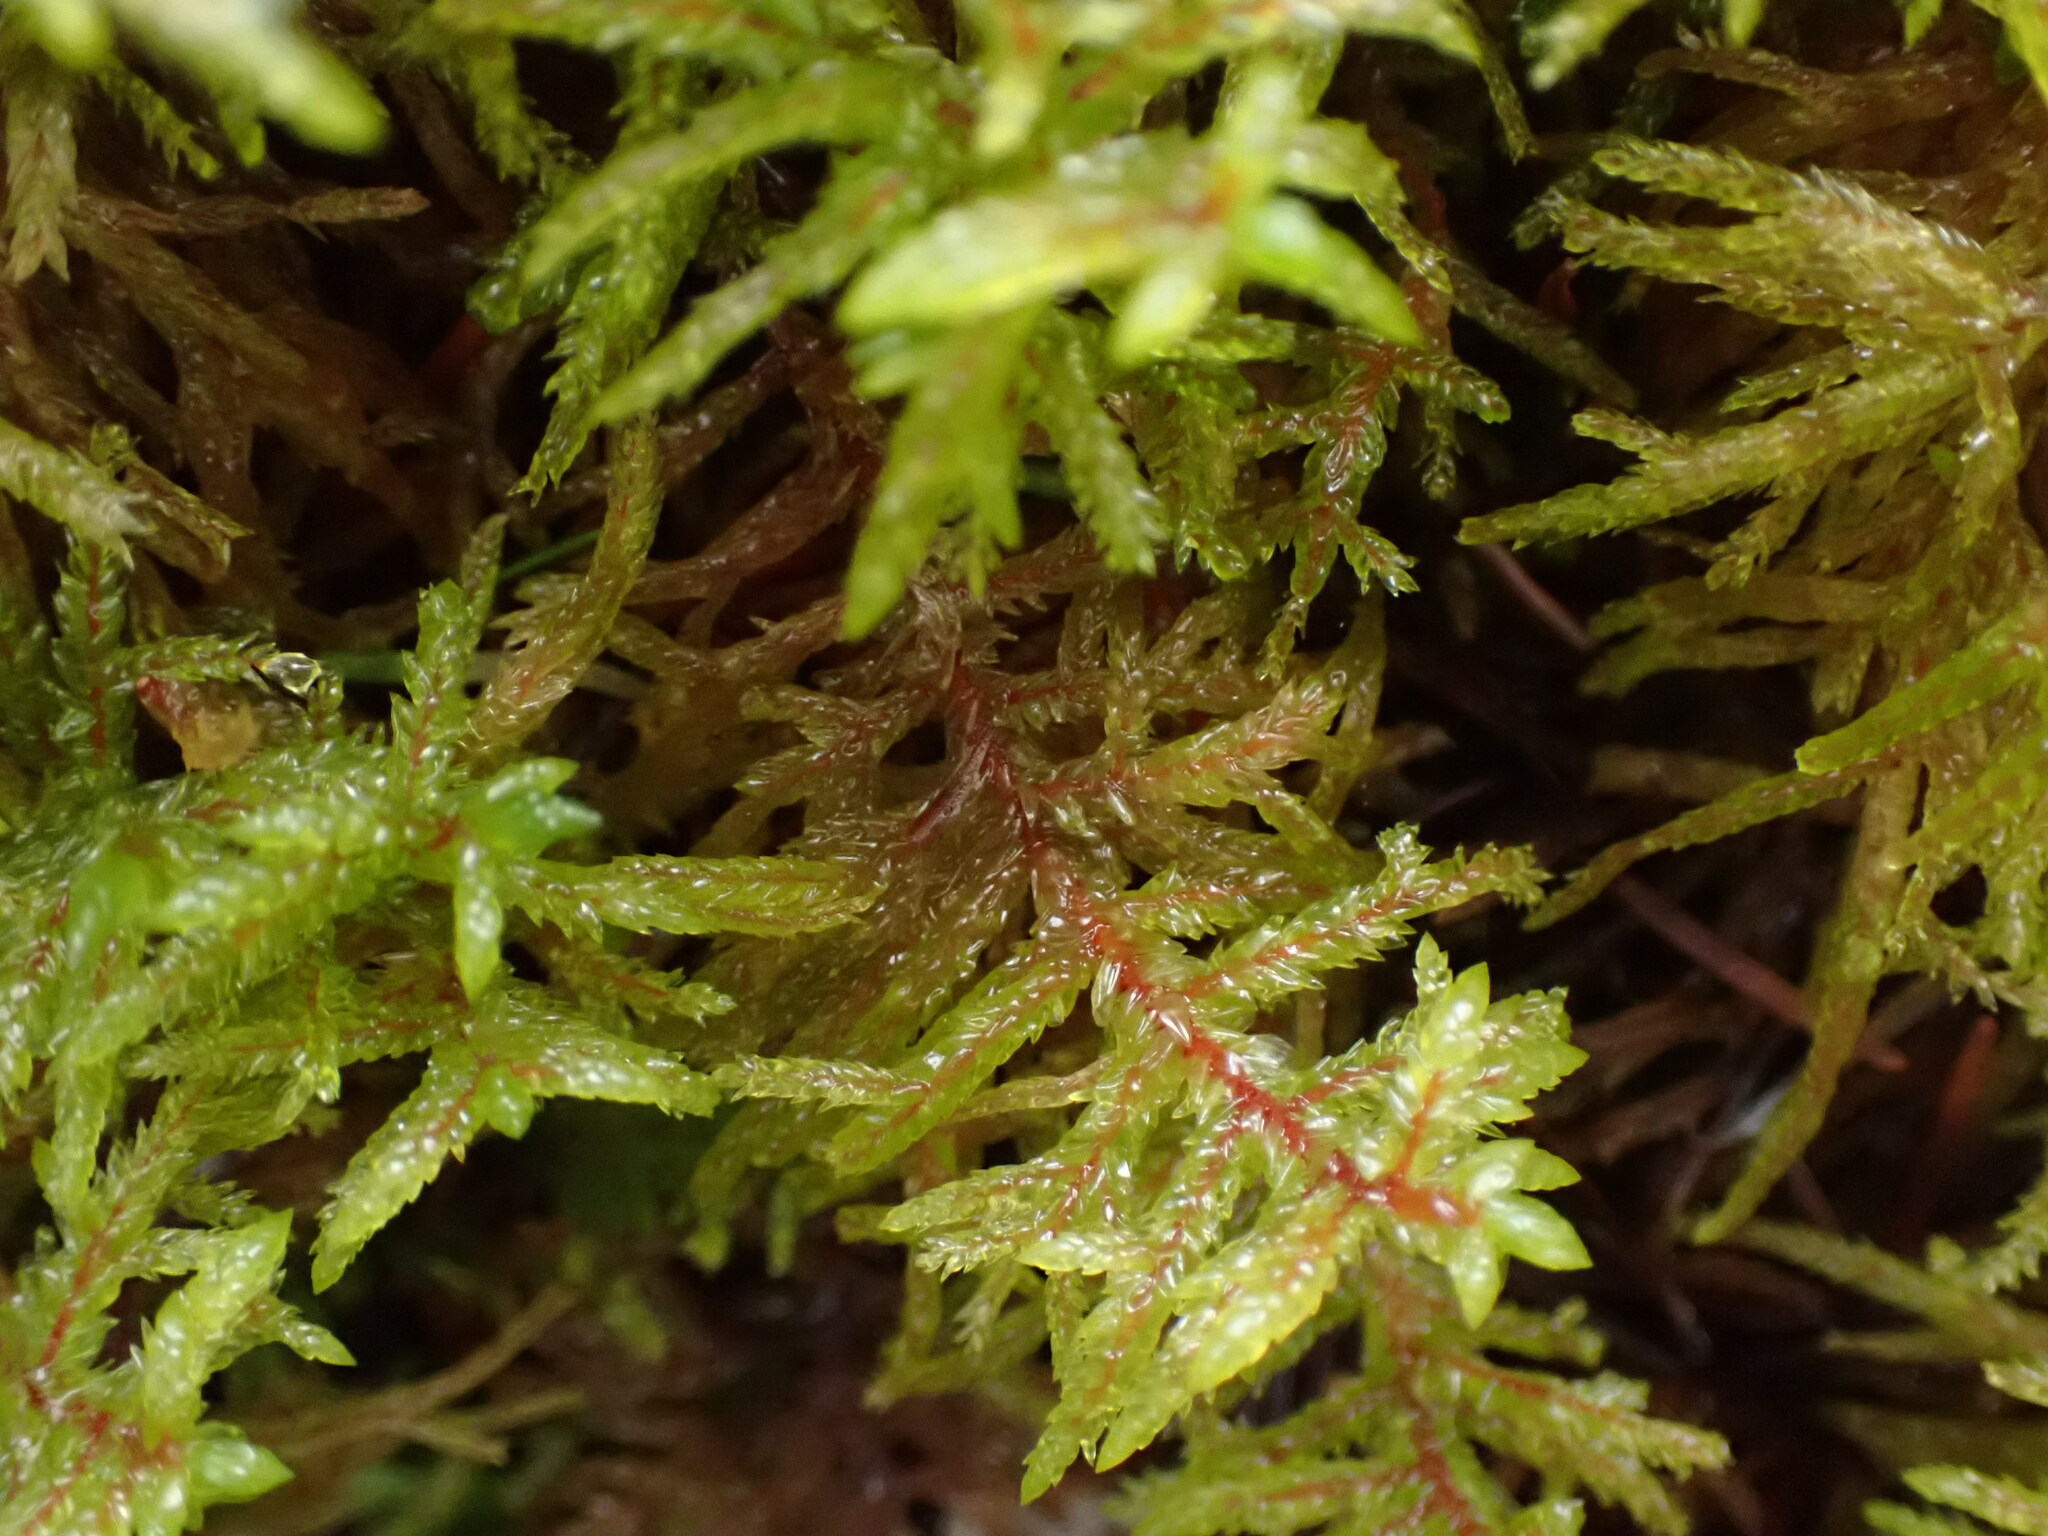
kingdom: Plantae
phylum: Bryophyta
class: Bryopsida
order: Hypnales
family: Hylocomiaceae
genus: Pleurozium
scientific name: Pleurozium schreberi
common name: Red-stemmed feather moss
